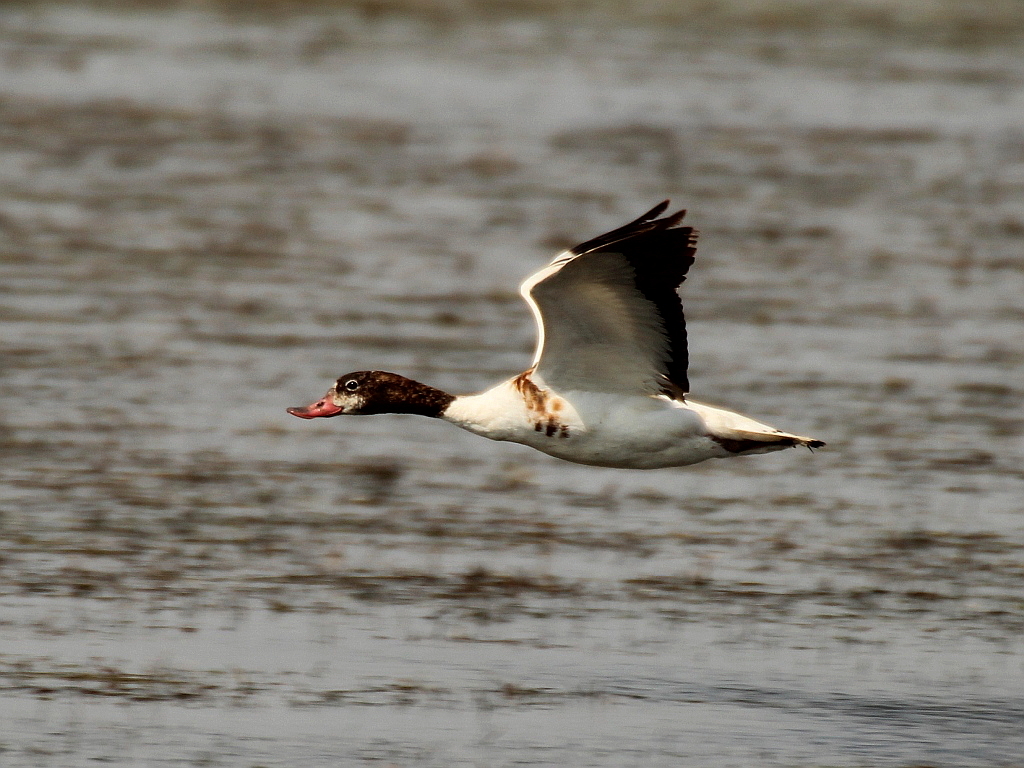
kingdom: Animalia
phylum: Chordata
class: Aves
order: Anseriformes
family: Anatidae
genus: Tadorna
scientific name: Tadorna tadorna
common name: Common shelduck
